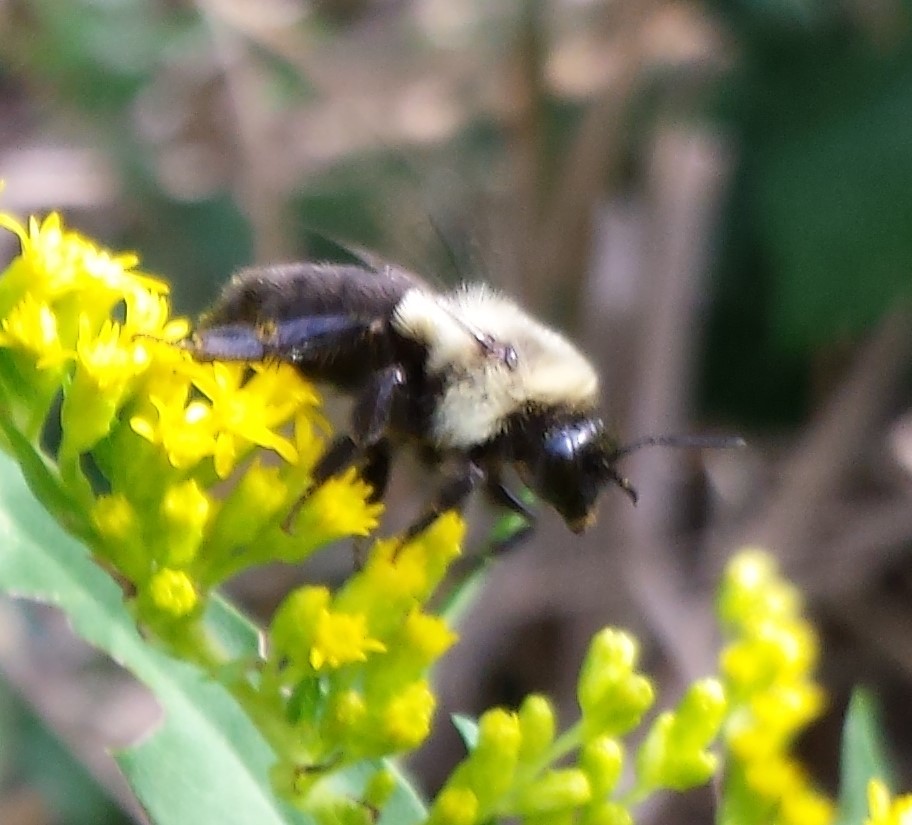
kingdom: Animalia
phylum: Arthropoda
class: Insecta
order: Hymenoptera
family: Apidae
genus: Bombus
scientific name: Bombus impatiens
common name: Common eastern bumble bee
